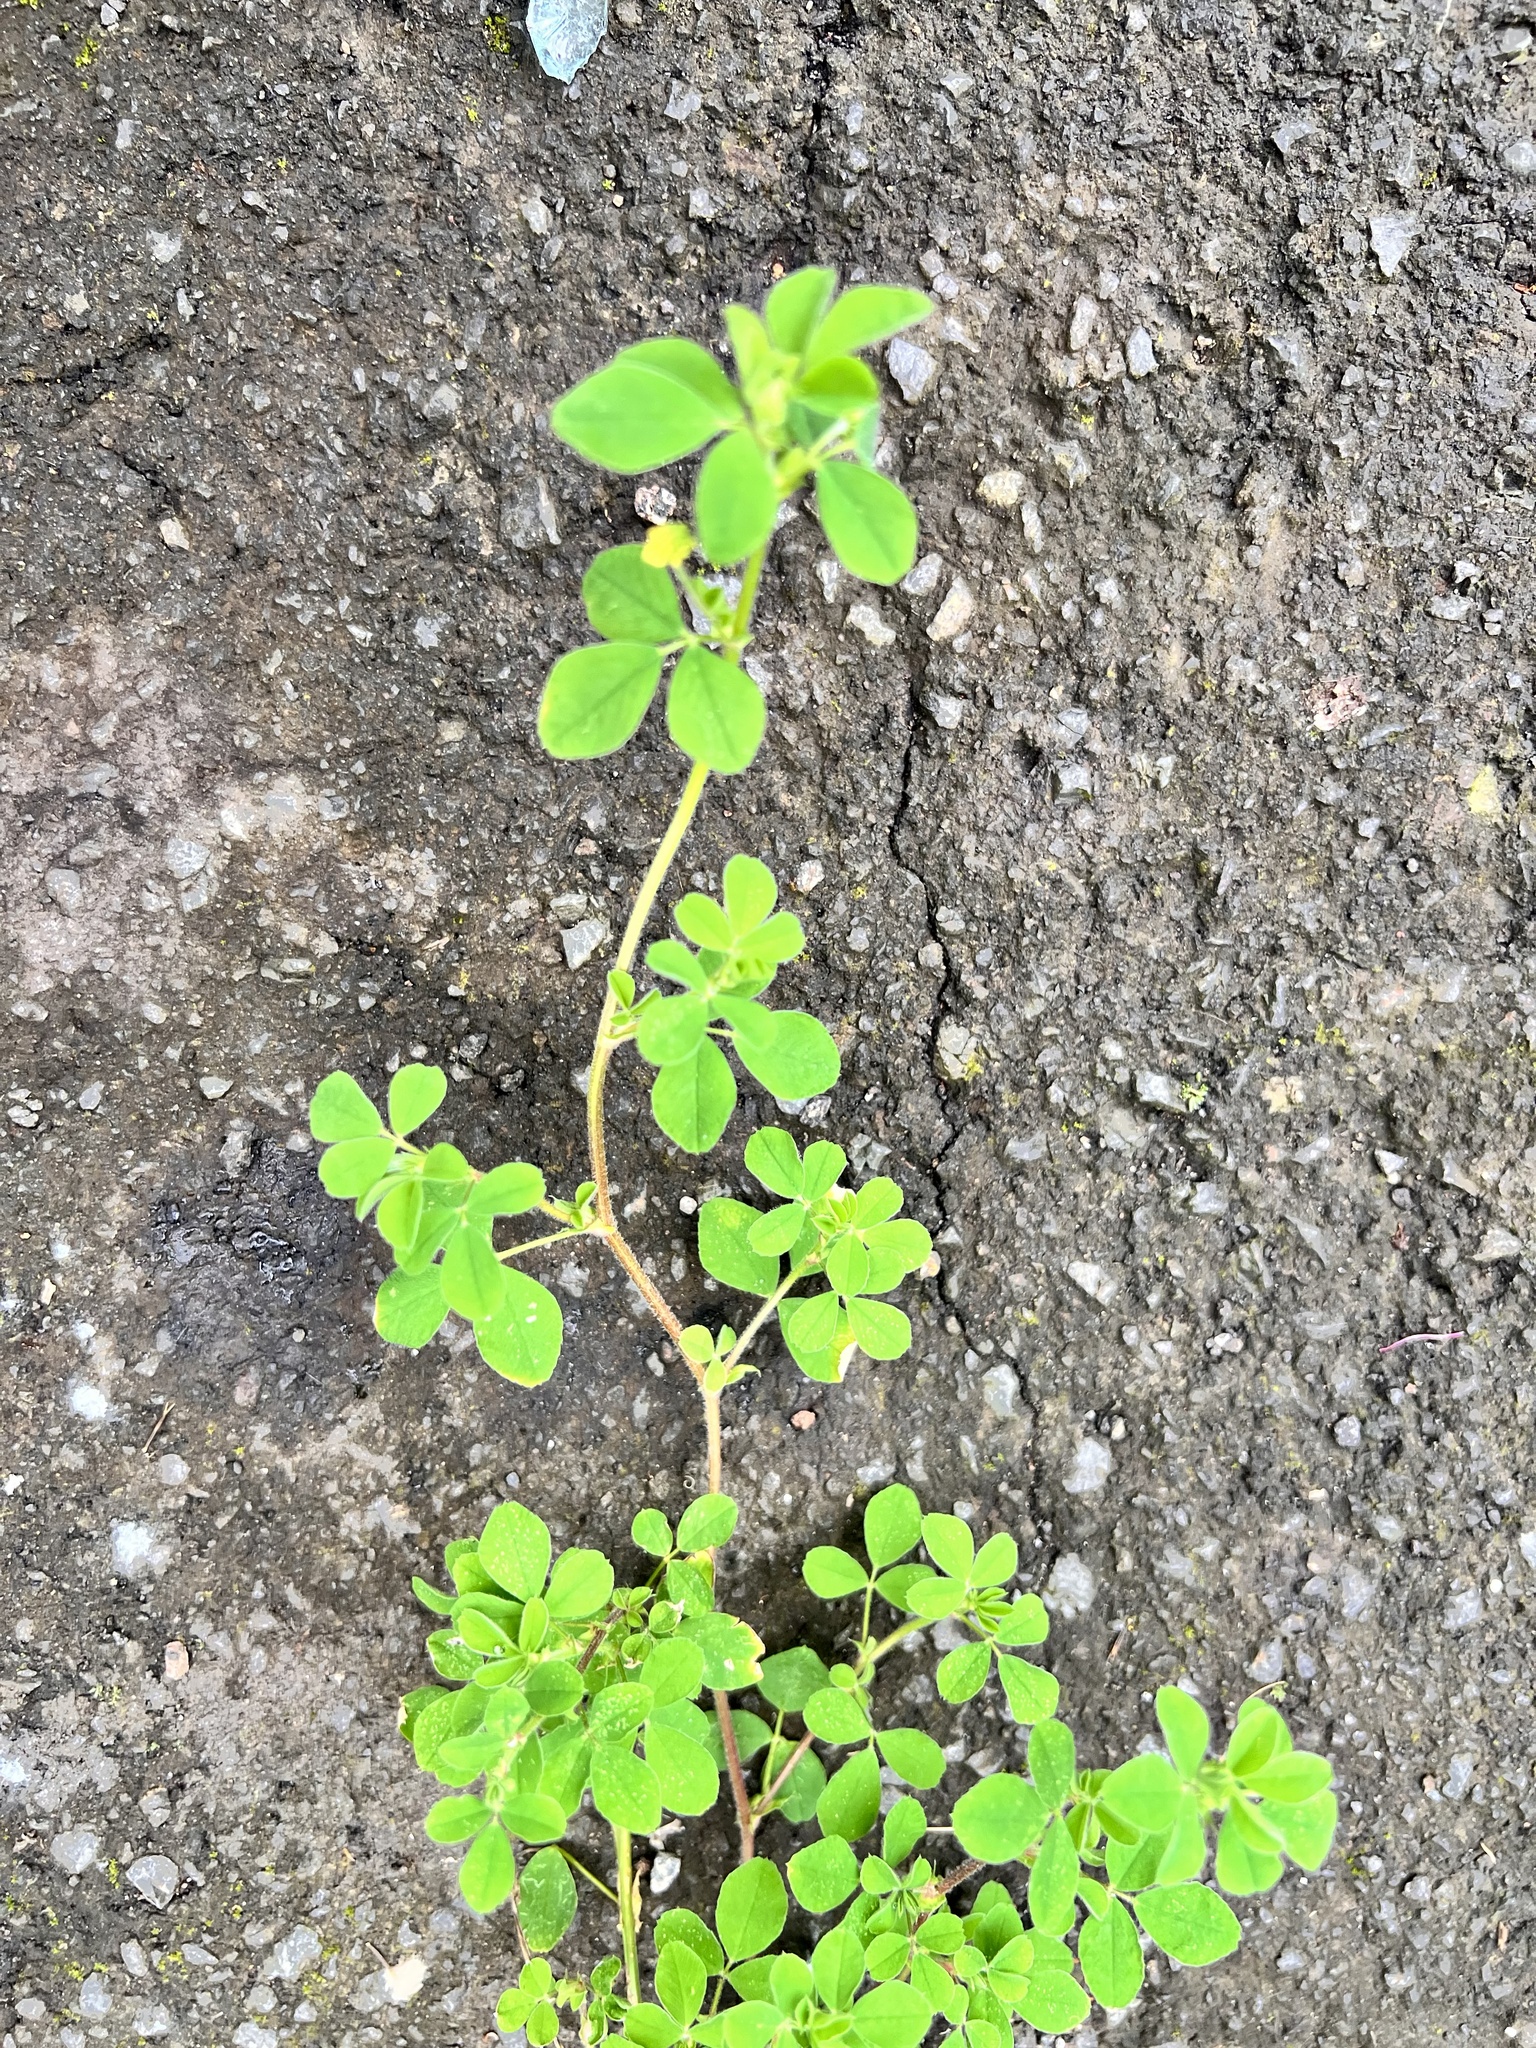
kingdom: Plantae
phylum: Tracheophyta
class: Magnoliopsida
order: Fabales
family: Fabaceae
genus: Medicago
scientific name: Medicago lupulina
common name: Black medick
